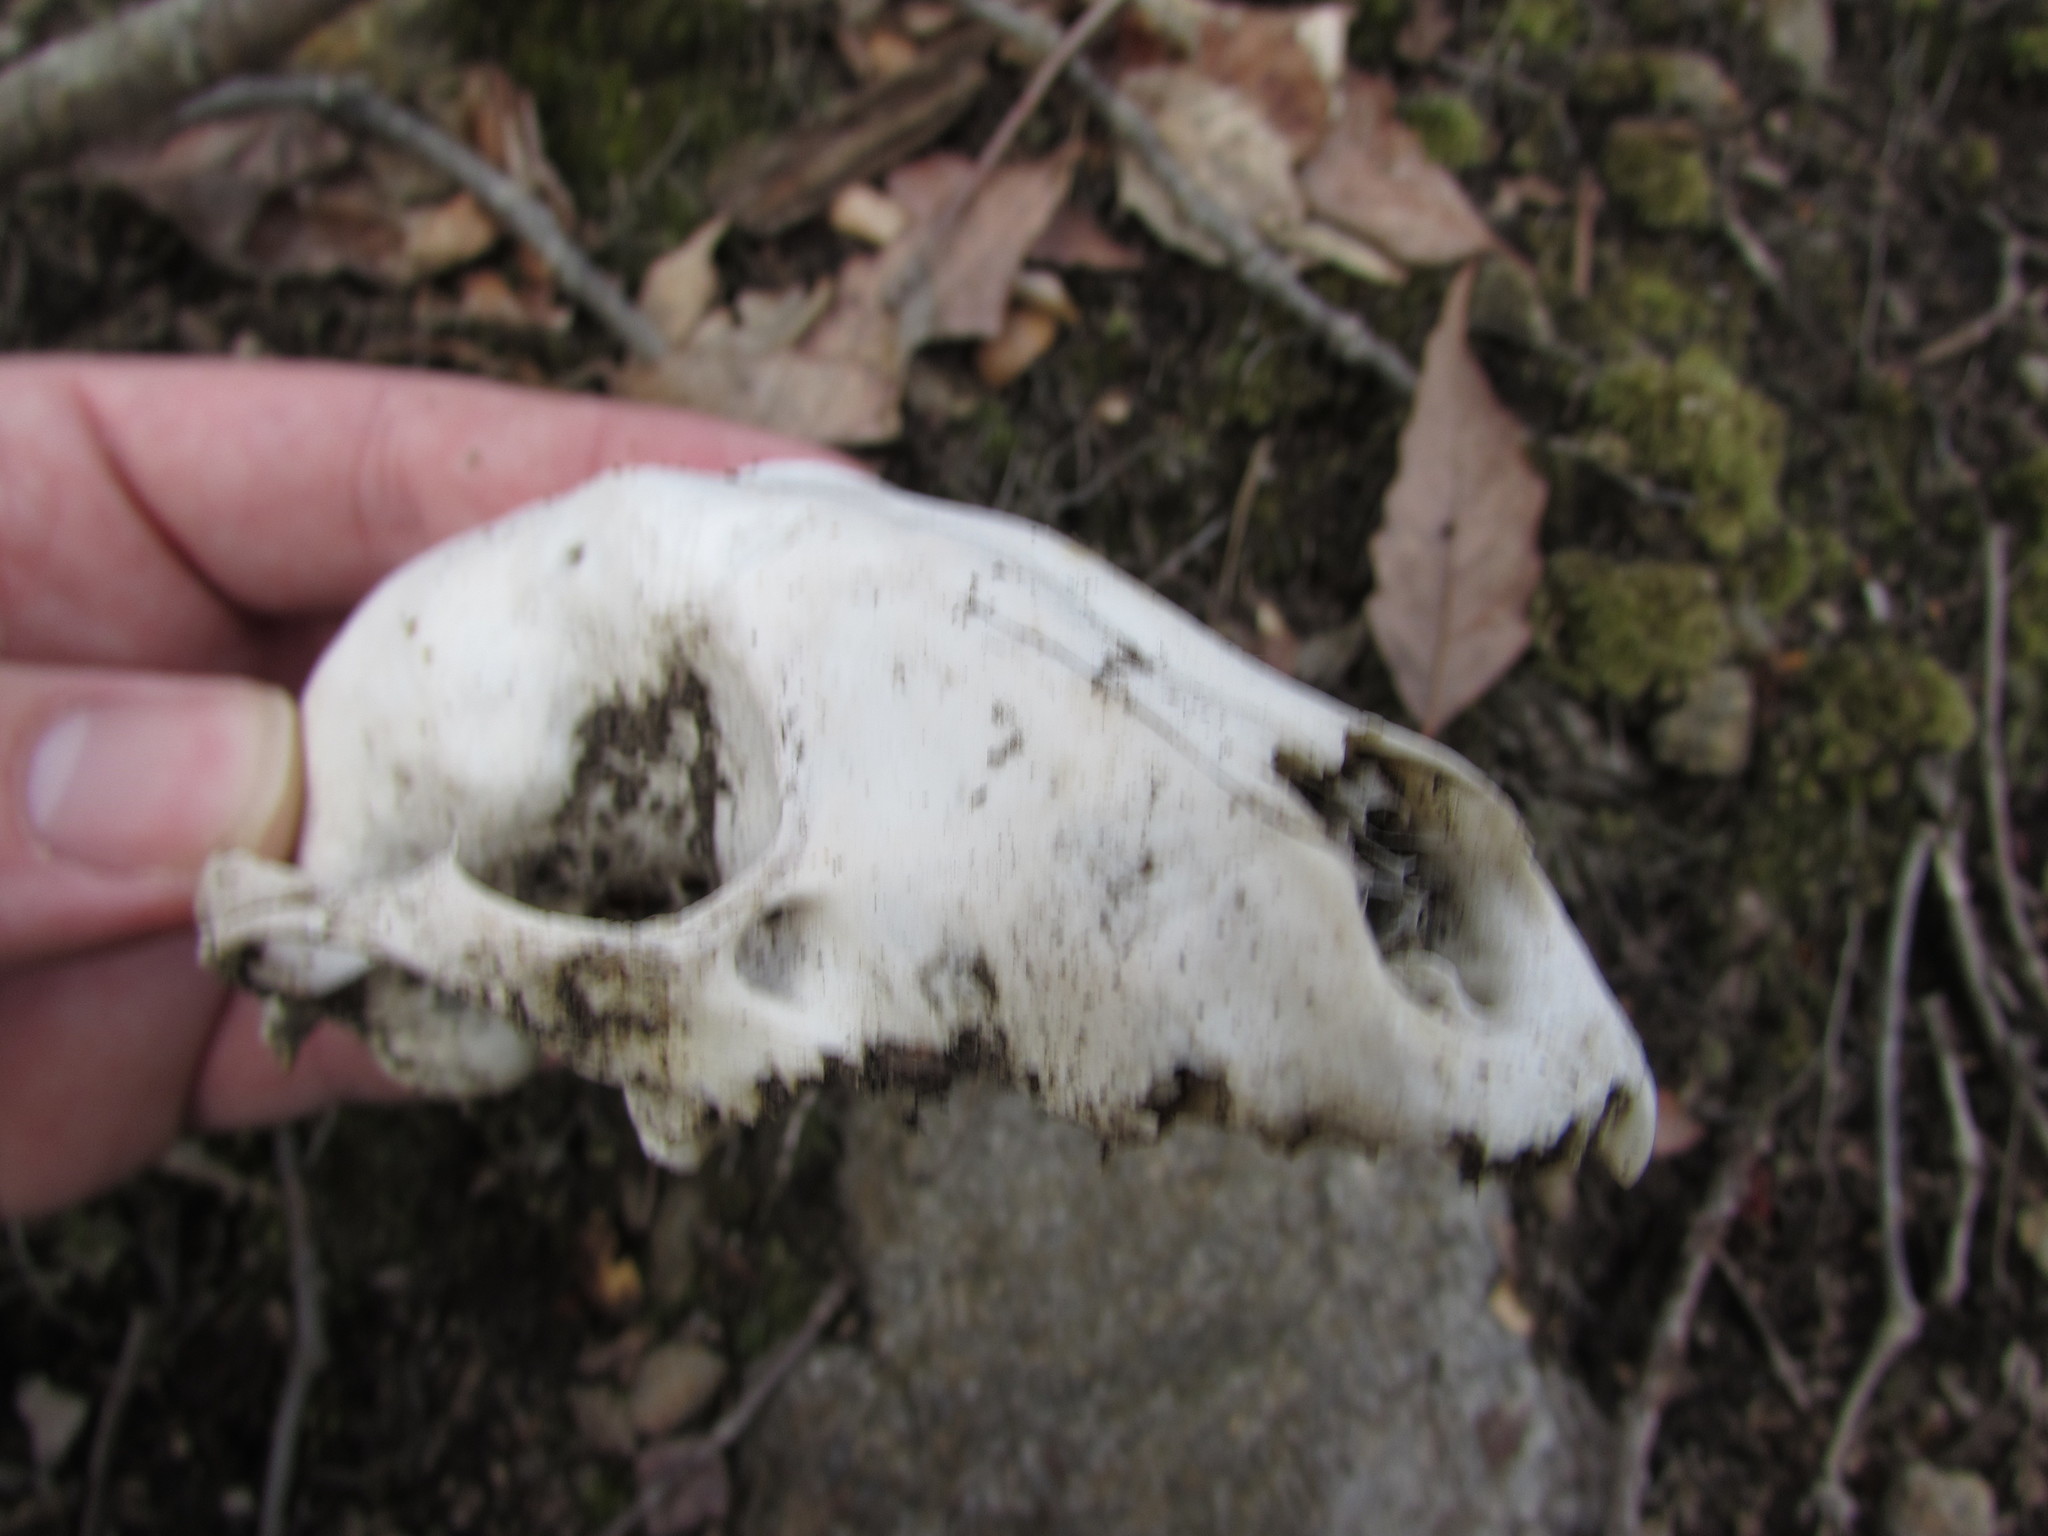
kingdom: Animalia
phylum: Chordata
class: Mammalia
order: Carnivora
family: Procyonidae
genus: Procyon
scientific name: Procyon lotor
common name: Raccoon
